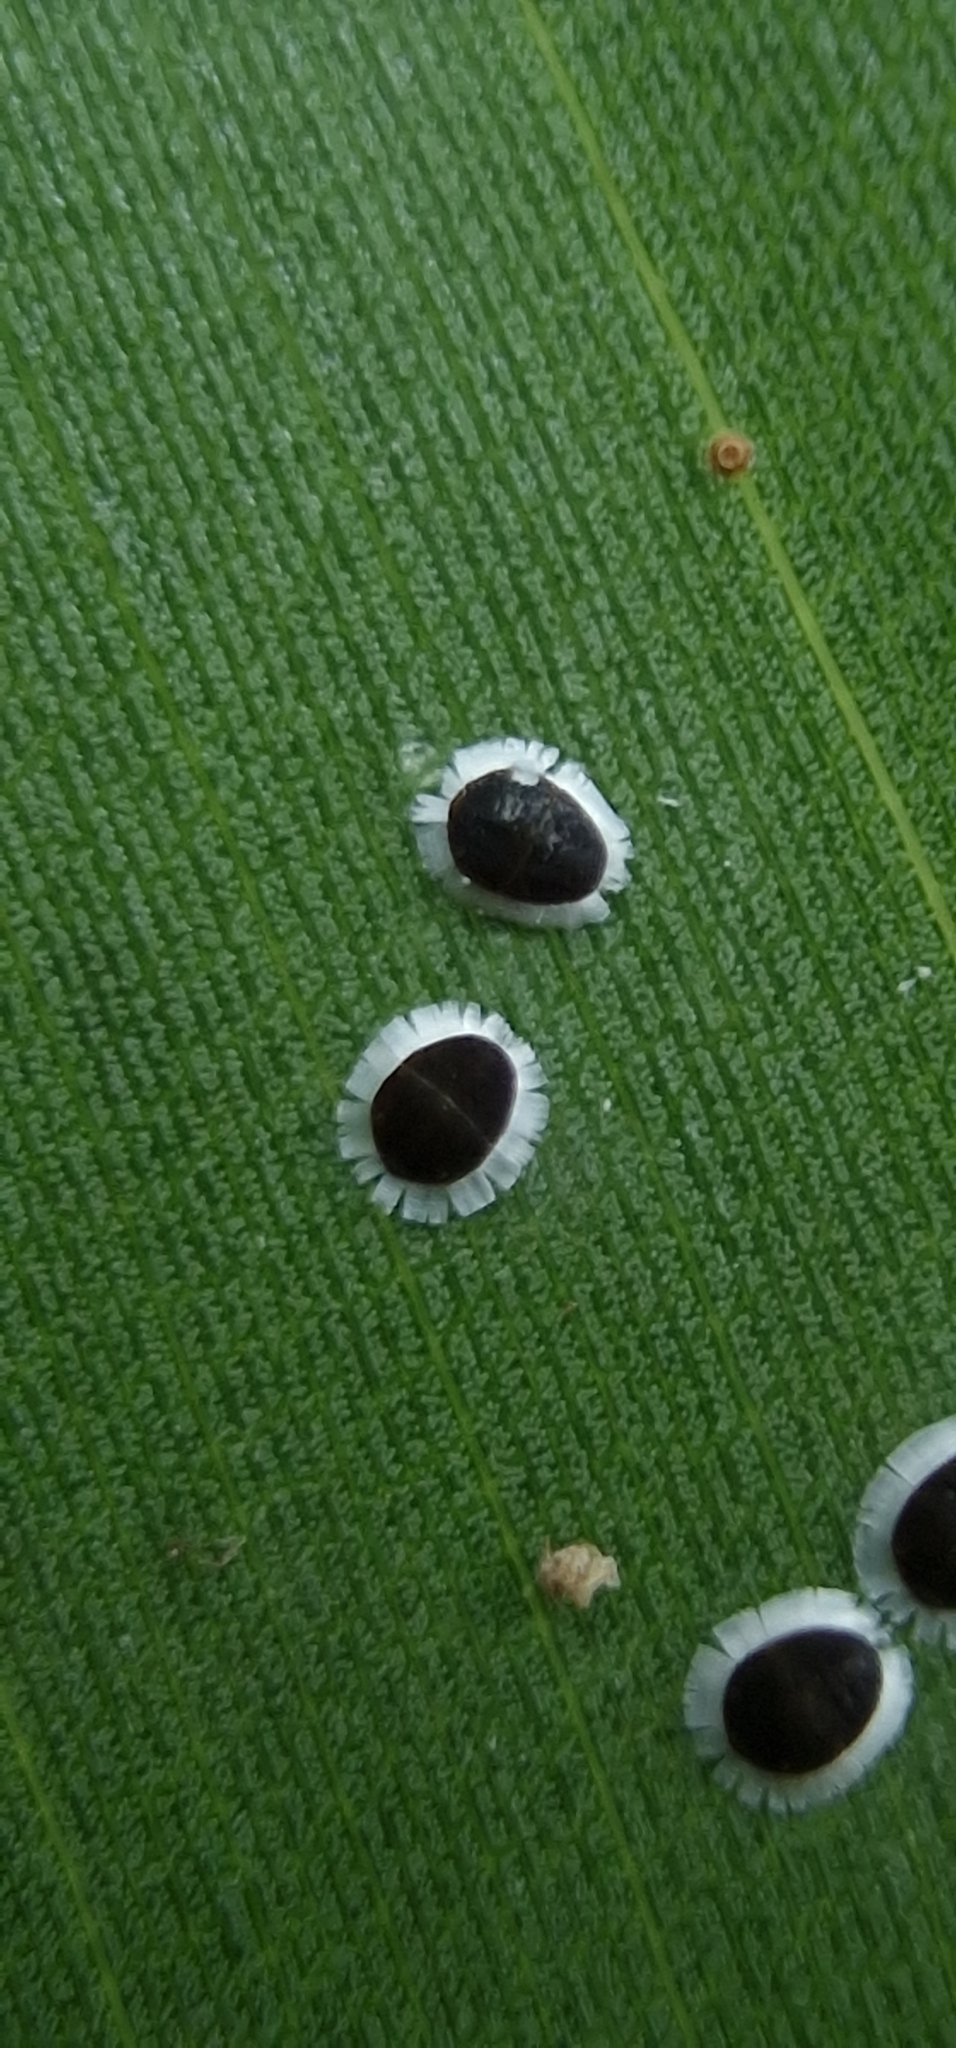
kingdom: Animalia
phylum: Arthropoda
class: Insecta
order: Hemiptera
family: Aphididae
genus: Cerataphis
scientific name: Cerataphis orchidearum
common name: Fringed orchid aphid
